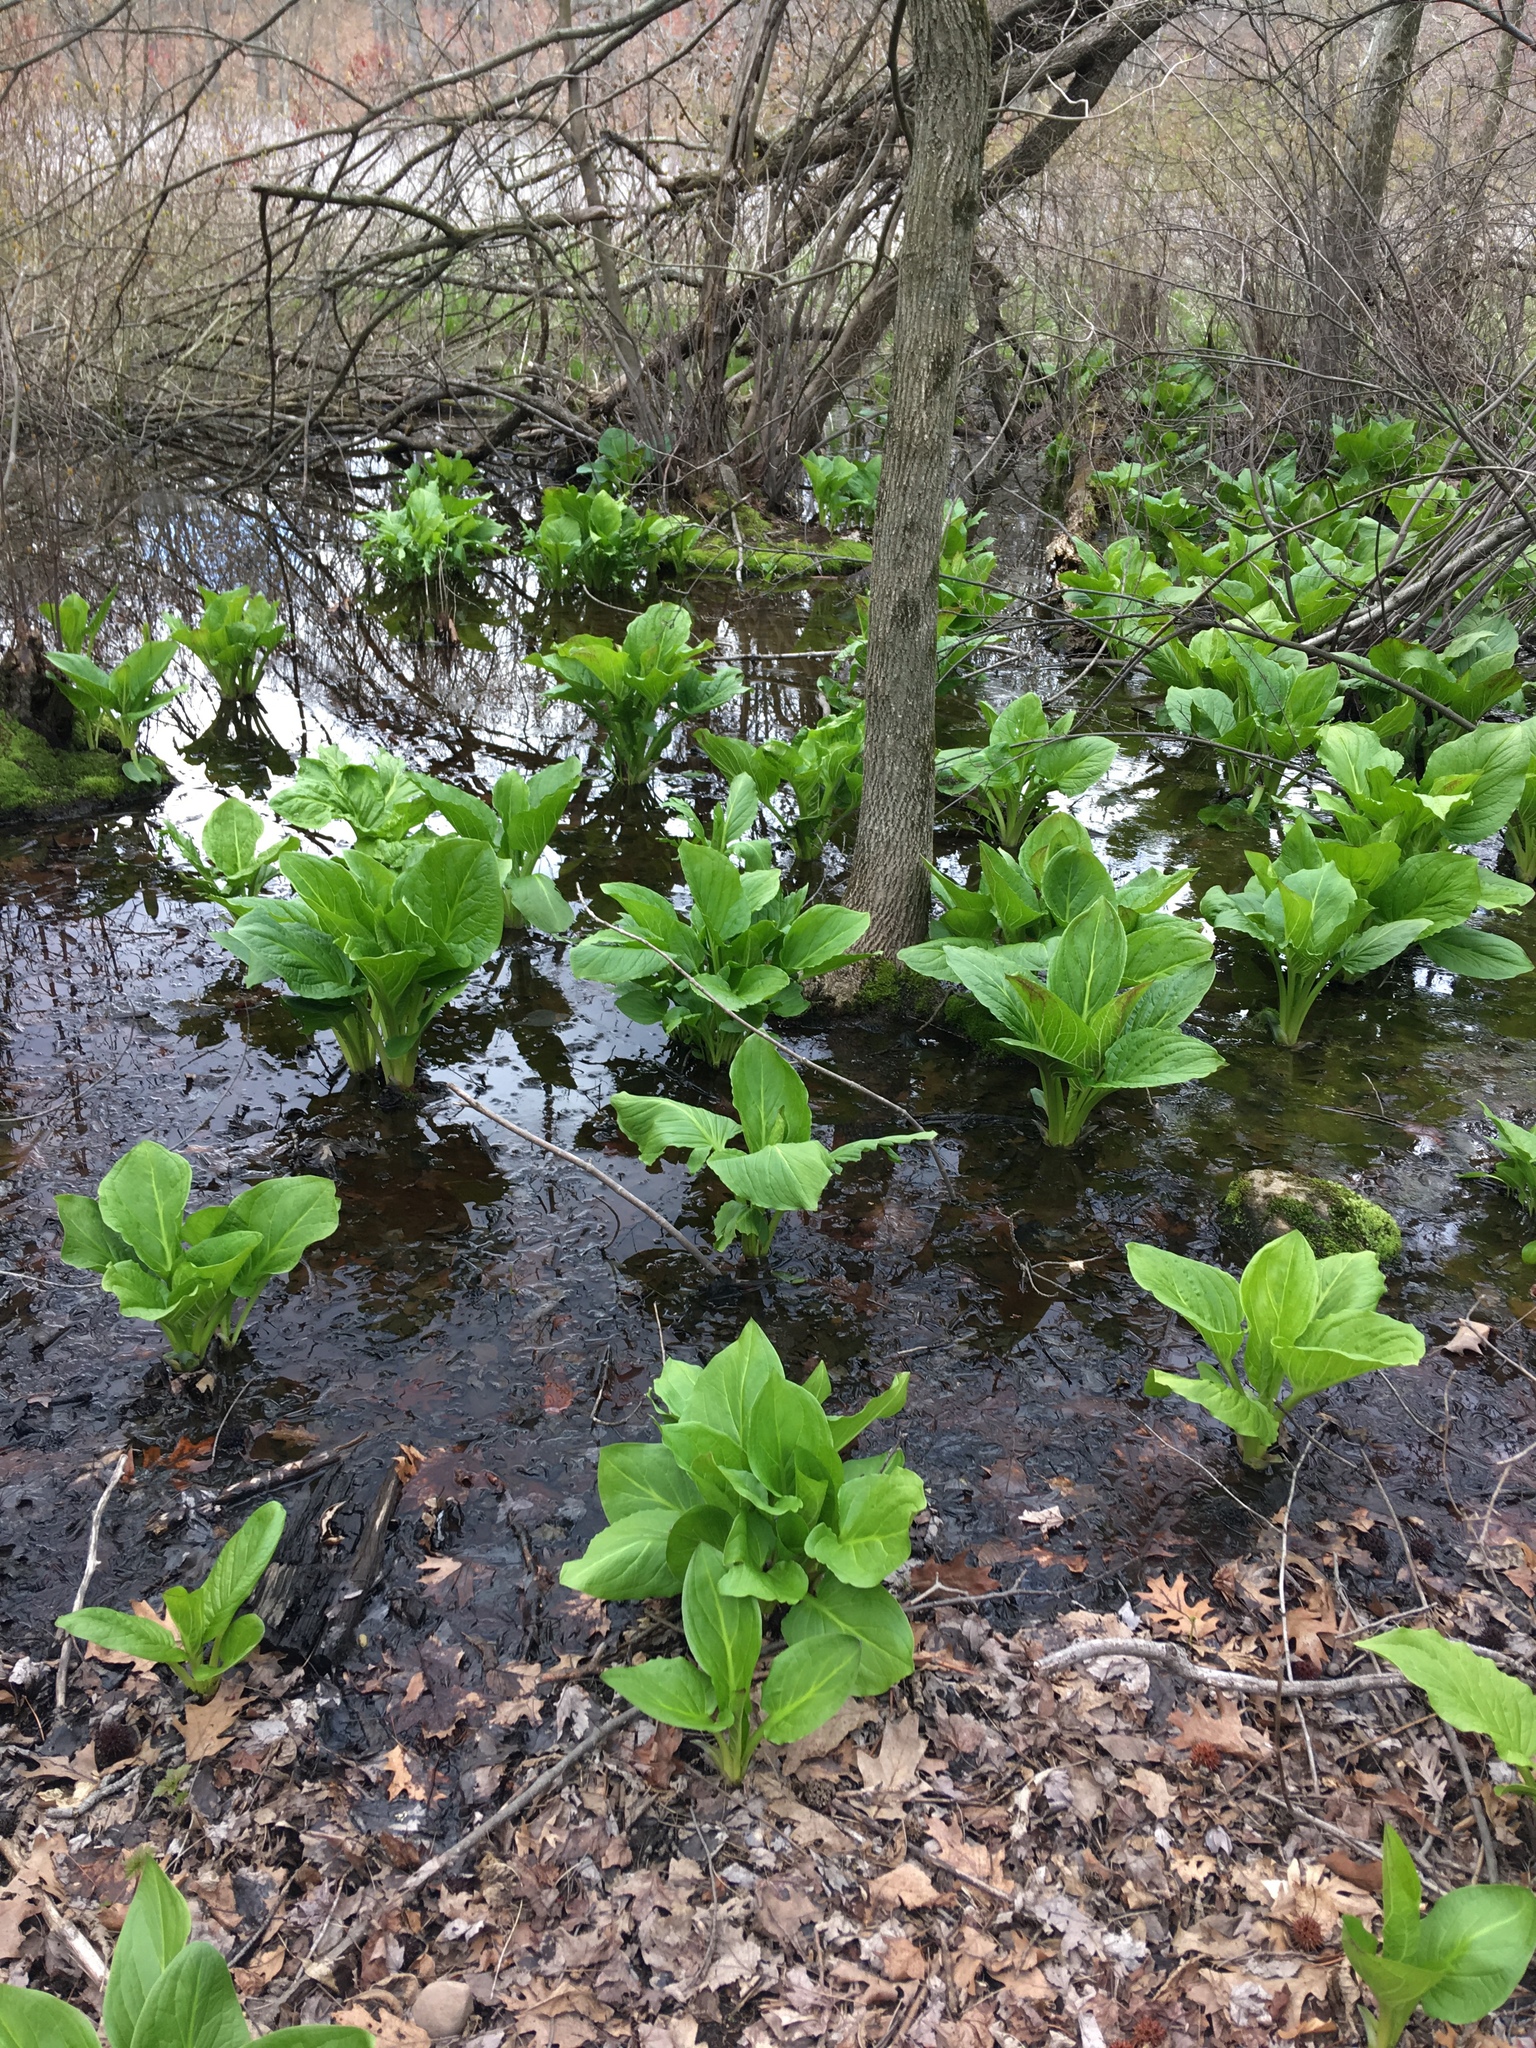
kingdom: Plantae
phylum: Tracheophyta
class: Liliopsida
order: Alismatales
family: Araceae
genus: Symplocarpus
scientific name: Symplocarpus foetidus
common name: Eastern skunk cabbage
